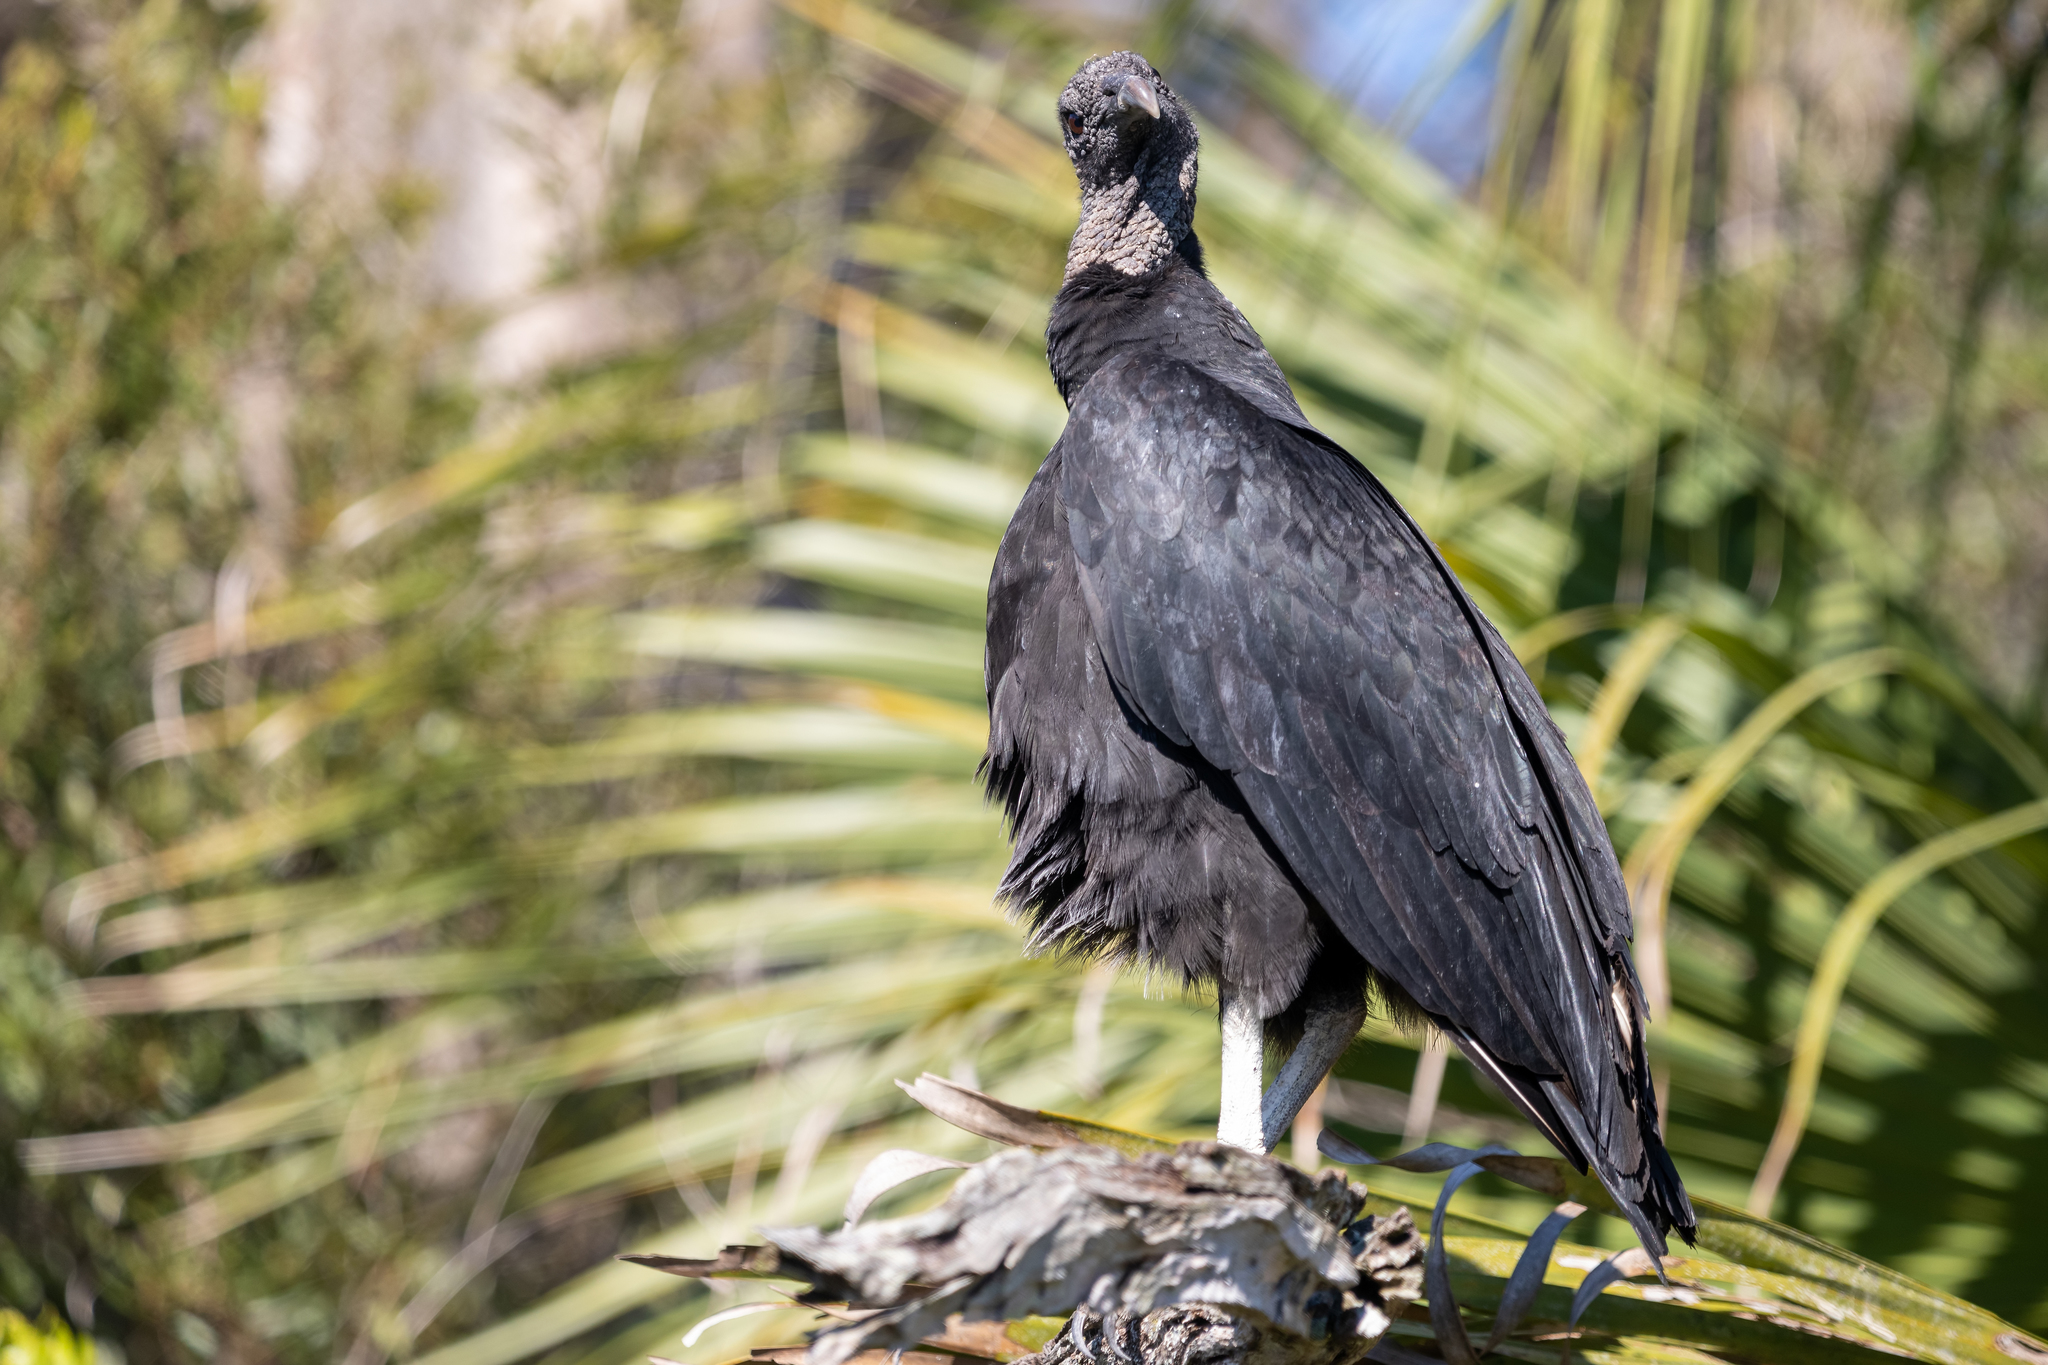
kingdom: Animalia
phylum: Chordata
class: Aves
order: Accipitriformes
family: Cathartidae
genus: Coragyps
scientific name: Coragyps atratus
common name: Black vulture
